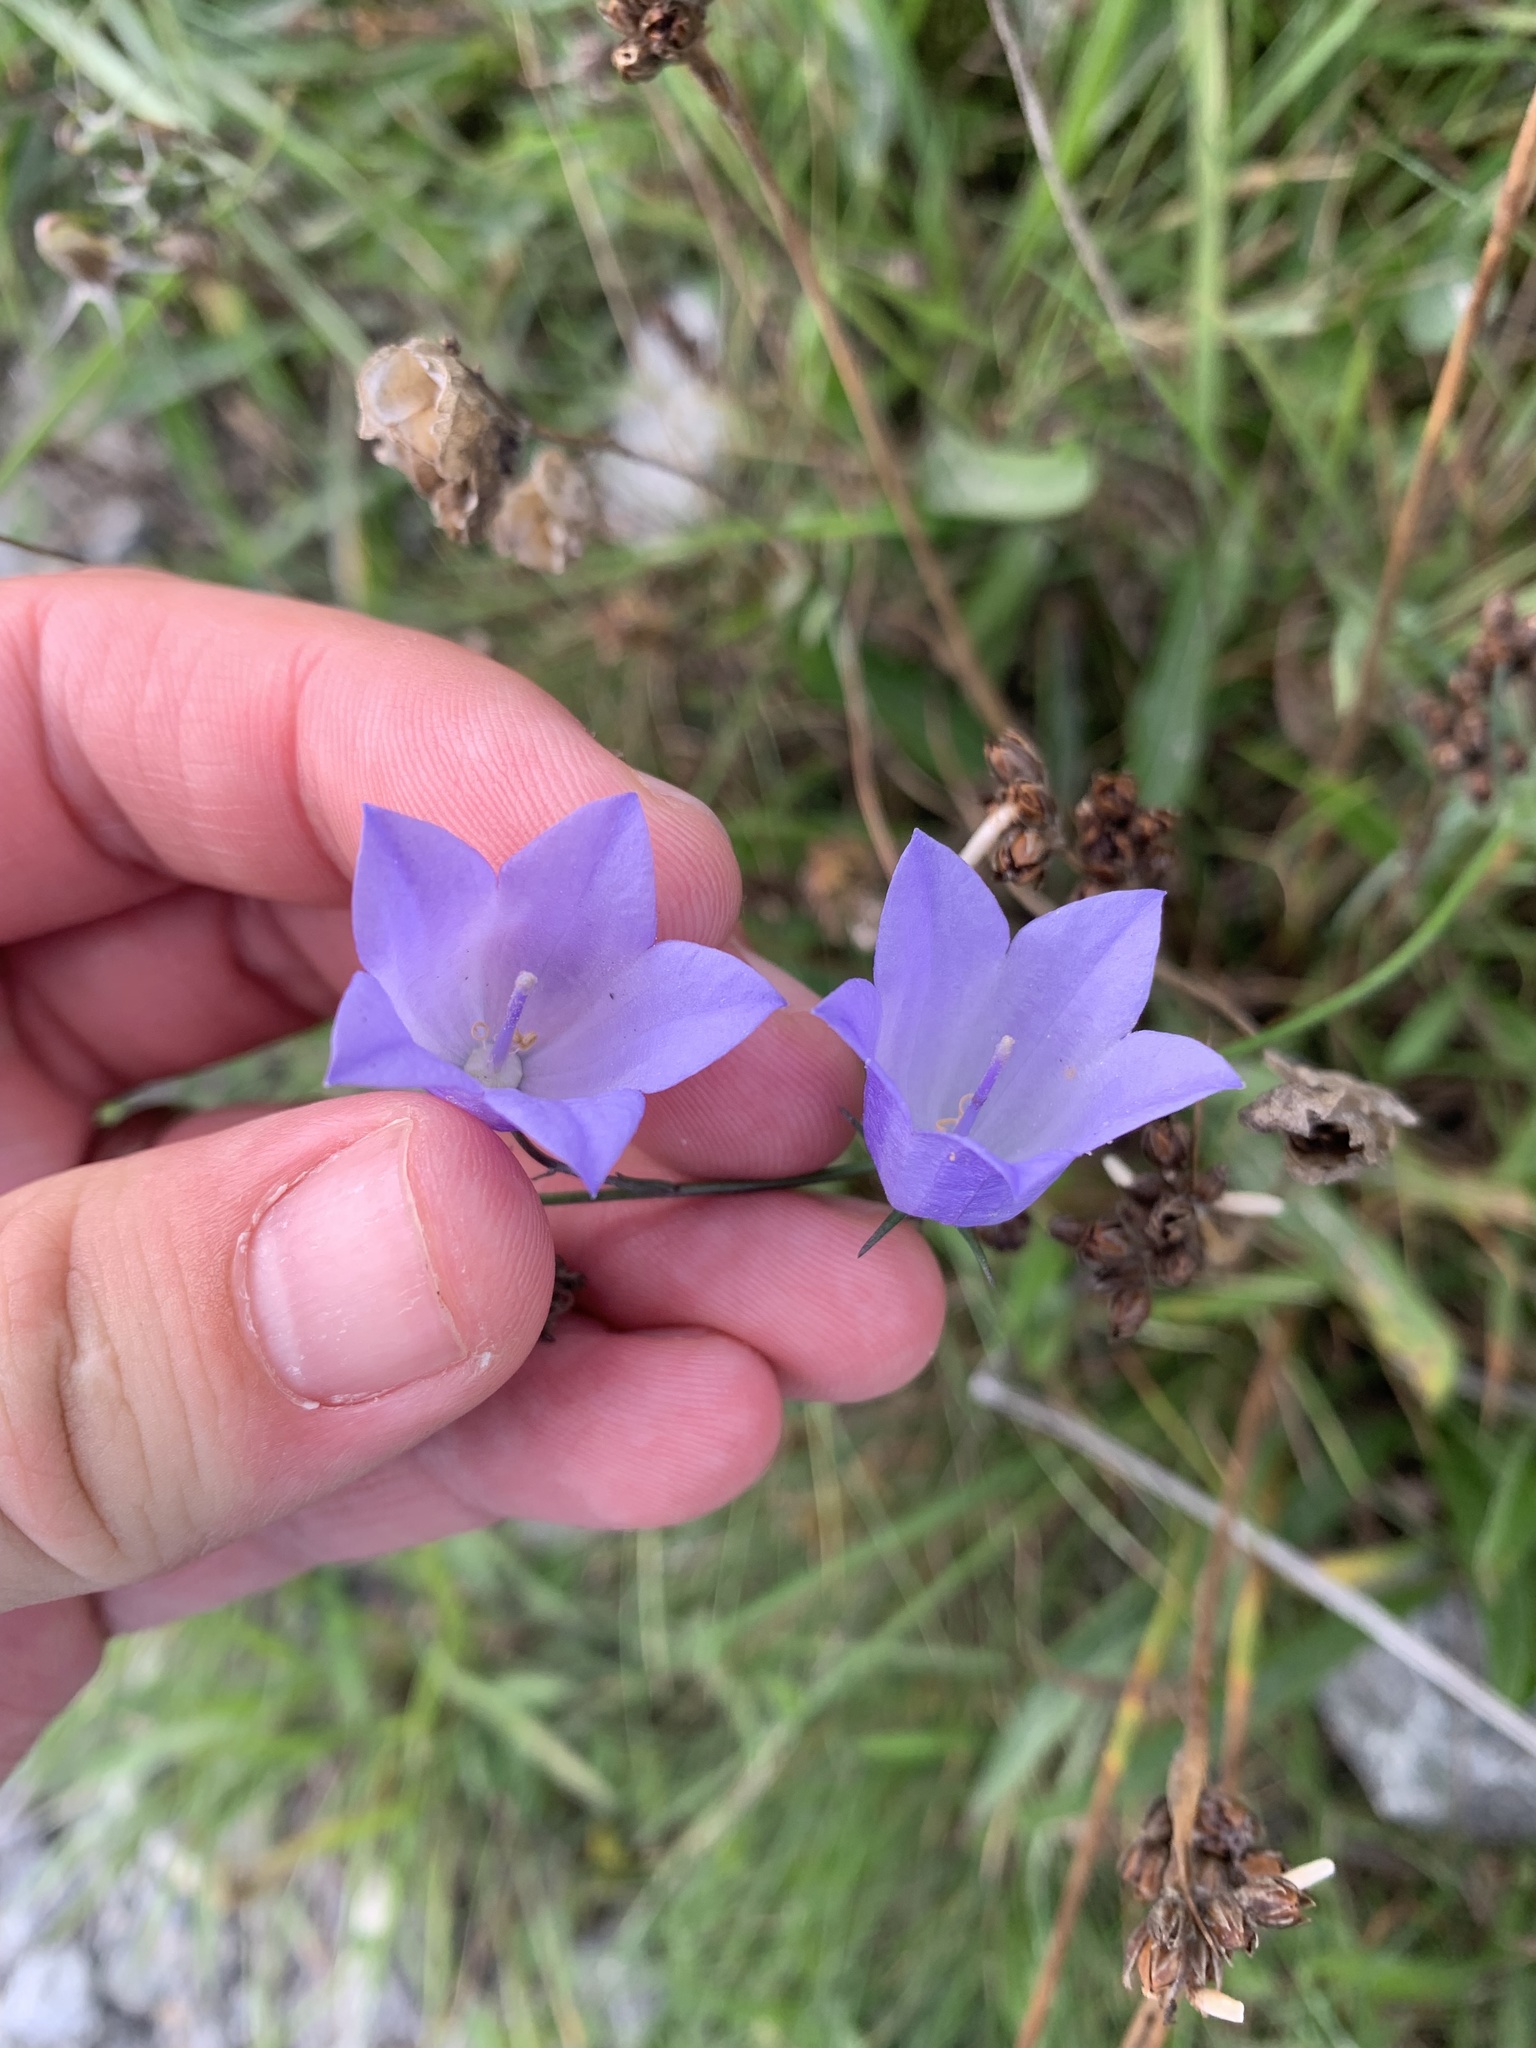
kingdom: Plantae
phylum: Tracheophyta
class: Magnoliopsida
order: Asterales
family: Campanulaceae
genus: Campanula
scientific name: Campanula rotundifolia
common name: Harebell
